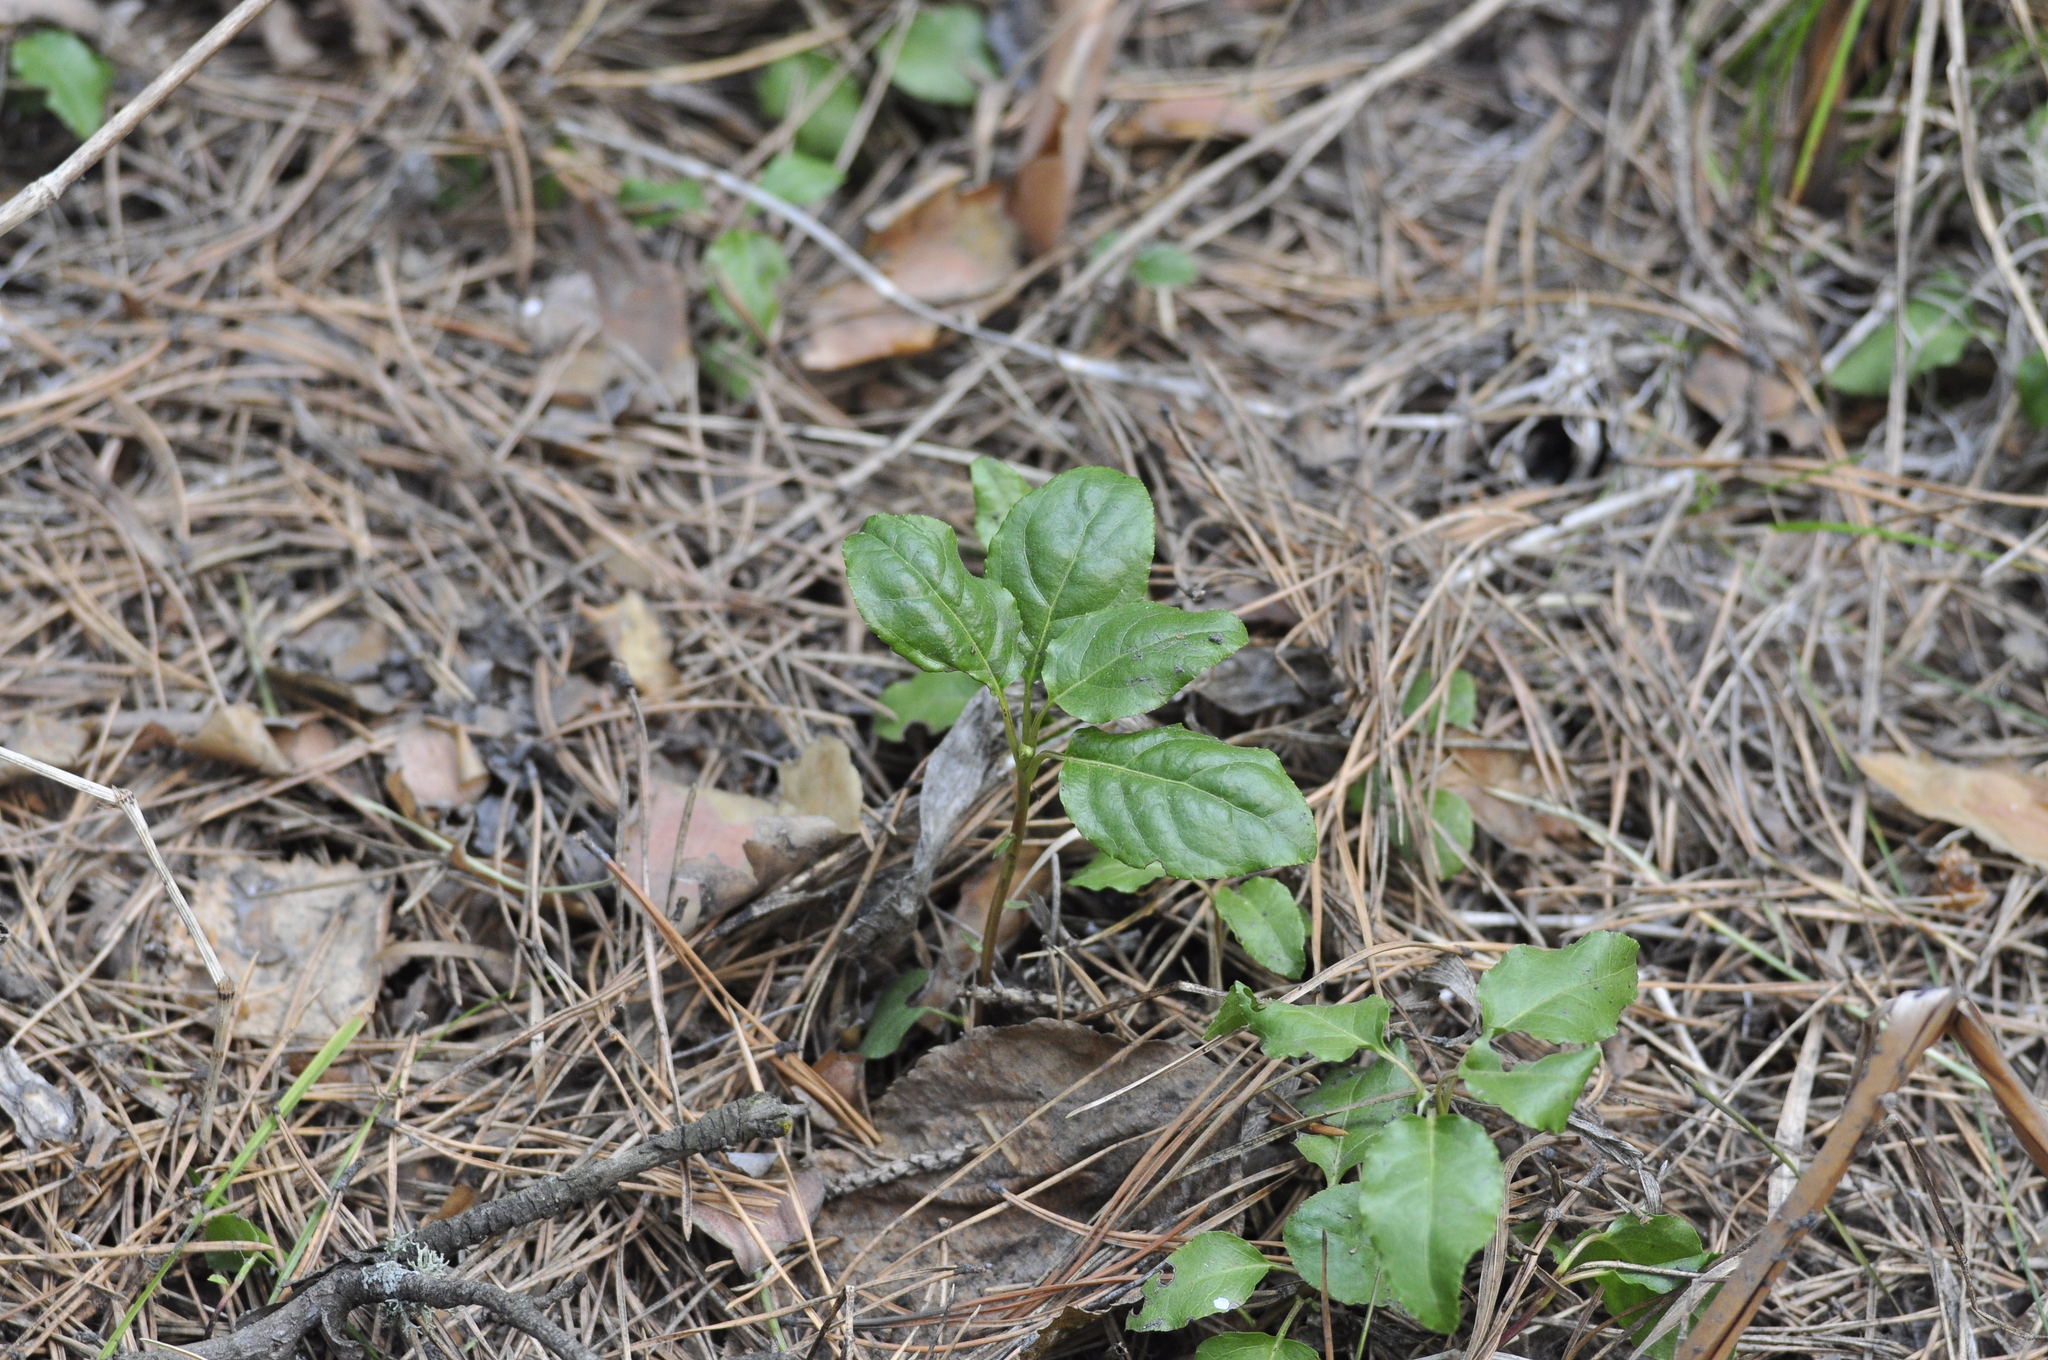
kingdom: Plantae
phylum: Tracheophyta
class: Magnoliopsida
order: Ericales
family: Ericaceae
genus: Orthilia
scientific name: Orthilia secunda
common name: One-sided orthilia
